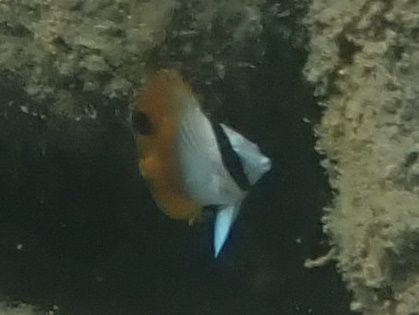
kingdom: Animalia
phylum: Chordata
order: Perciformes
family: Chaetodontidae
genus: Chaetodon
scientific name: Chaetodon auriga
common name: Threadfin butterflyfish
